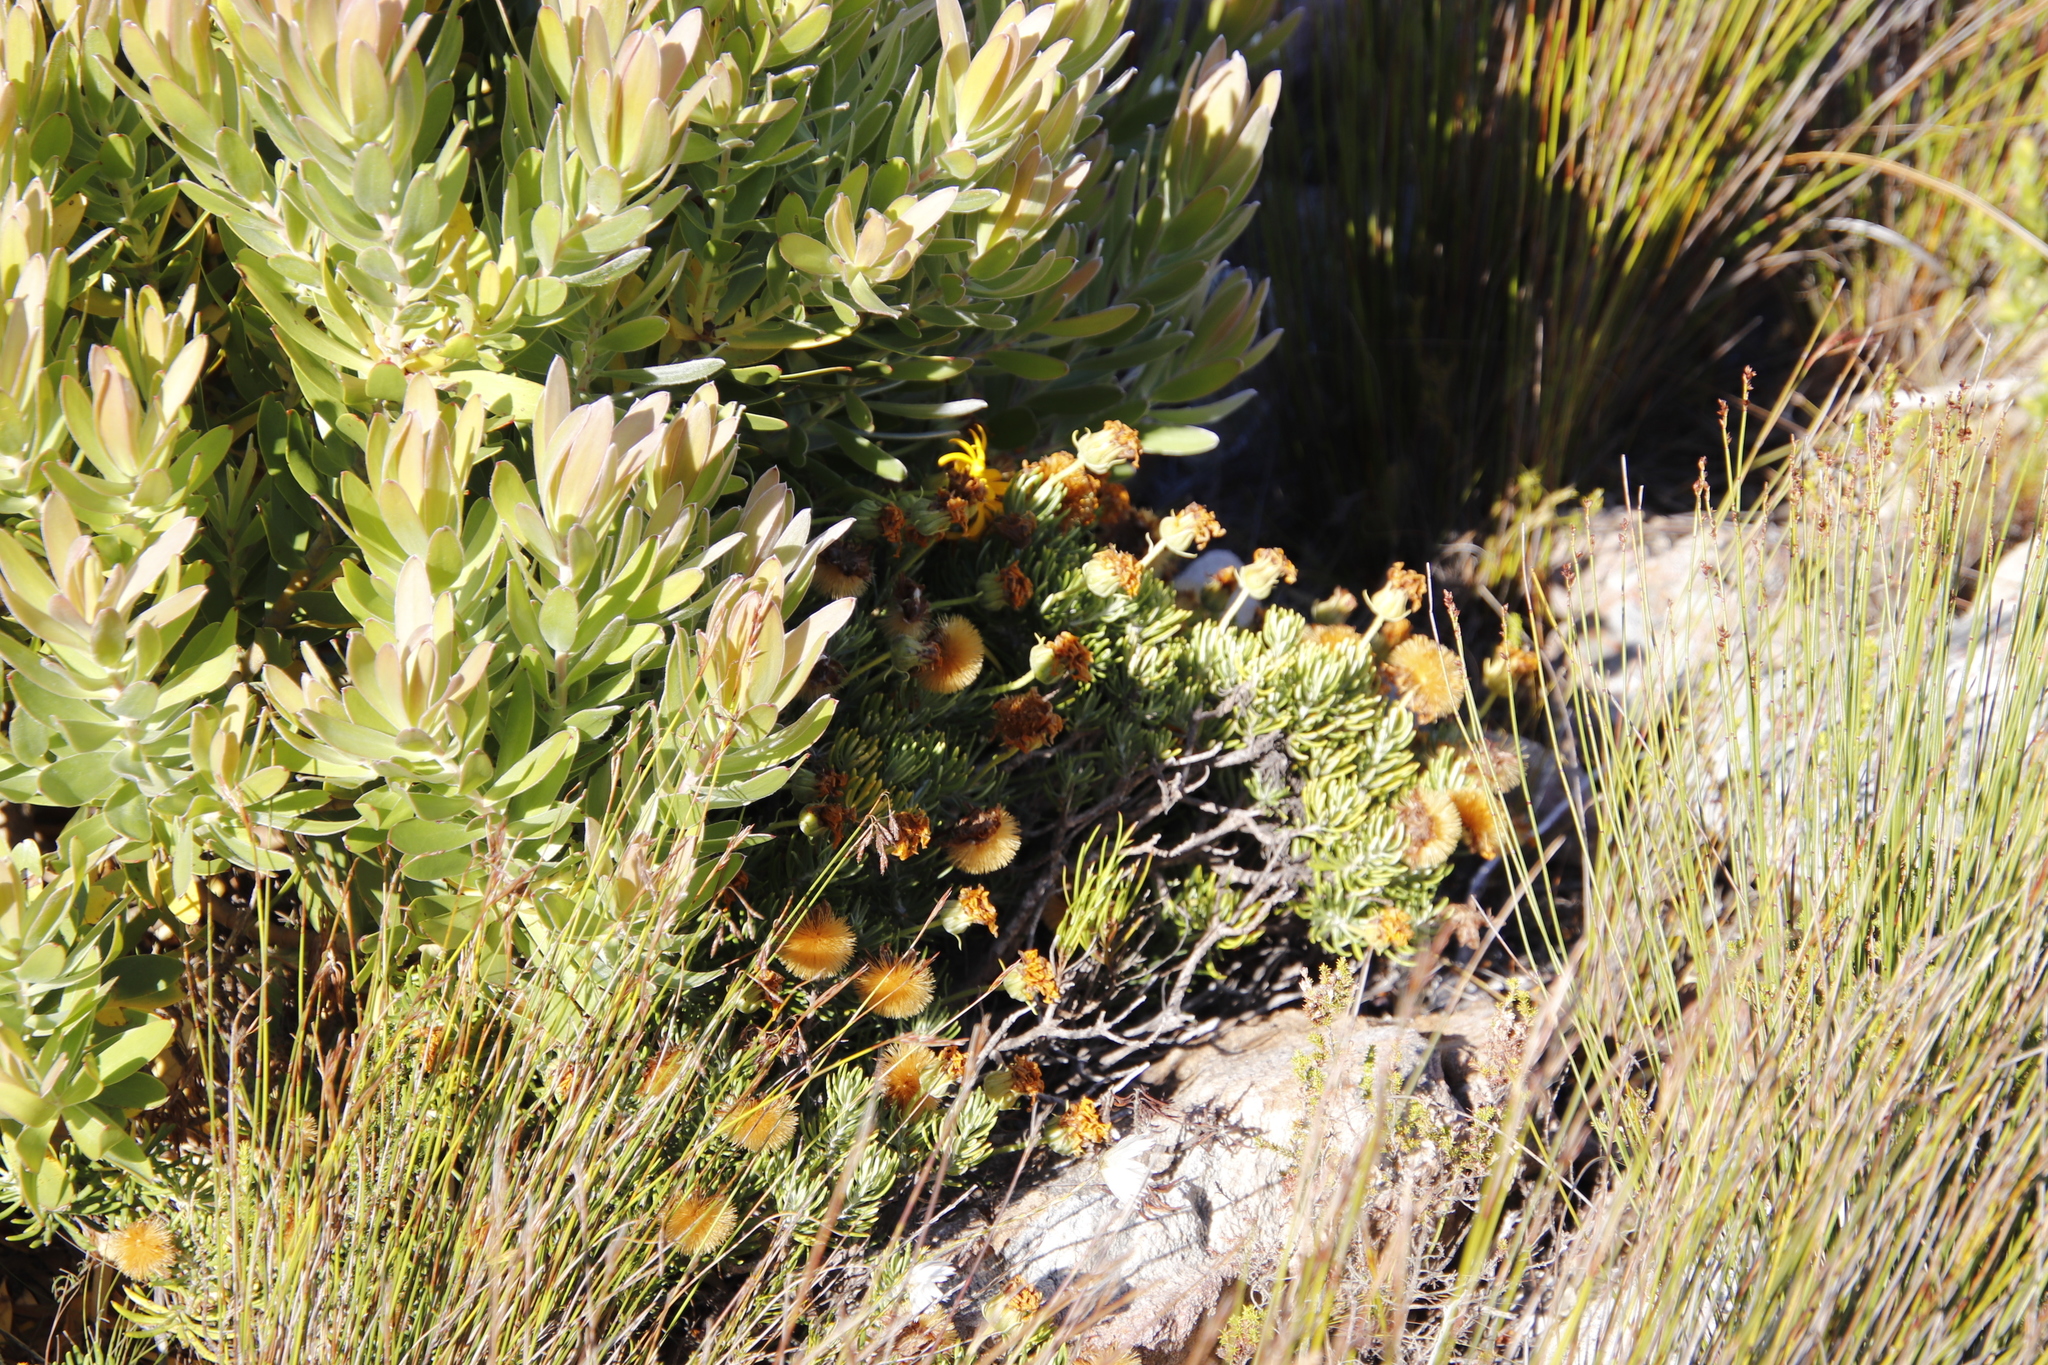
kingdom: Plantae
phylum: Tracheophyta
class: Magnoliopsida
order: Asterales
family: Asteraceae
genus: Heterolepis
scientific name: Heterolepis aliena
